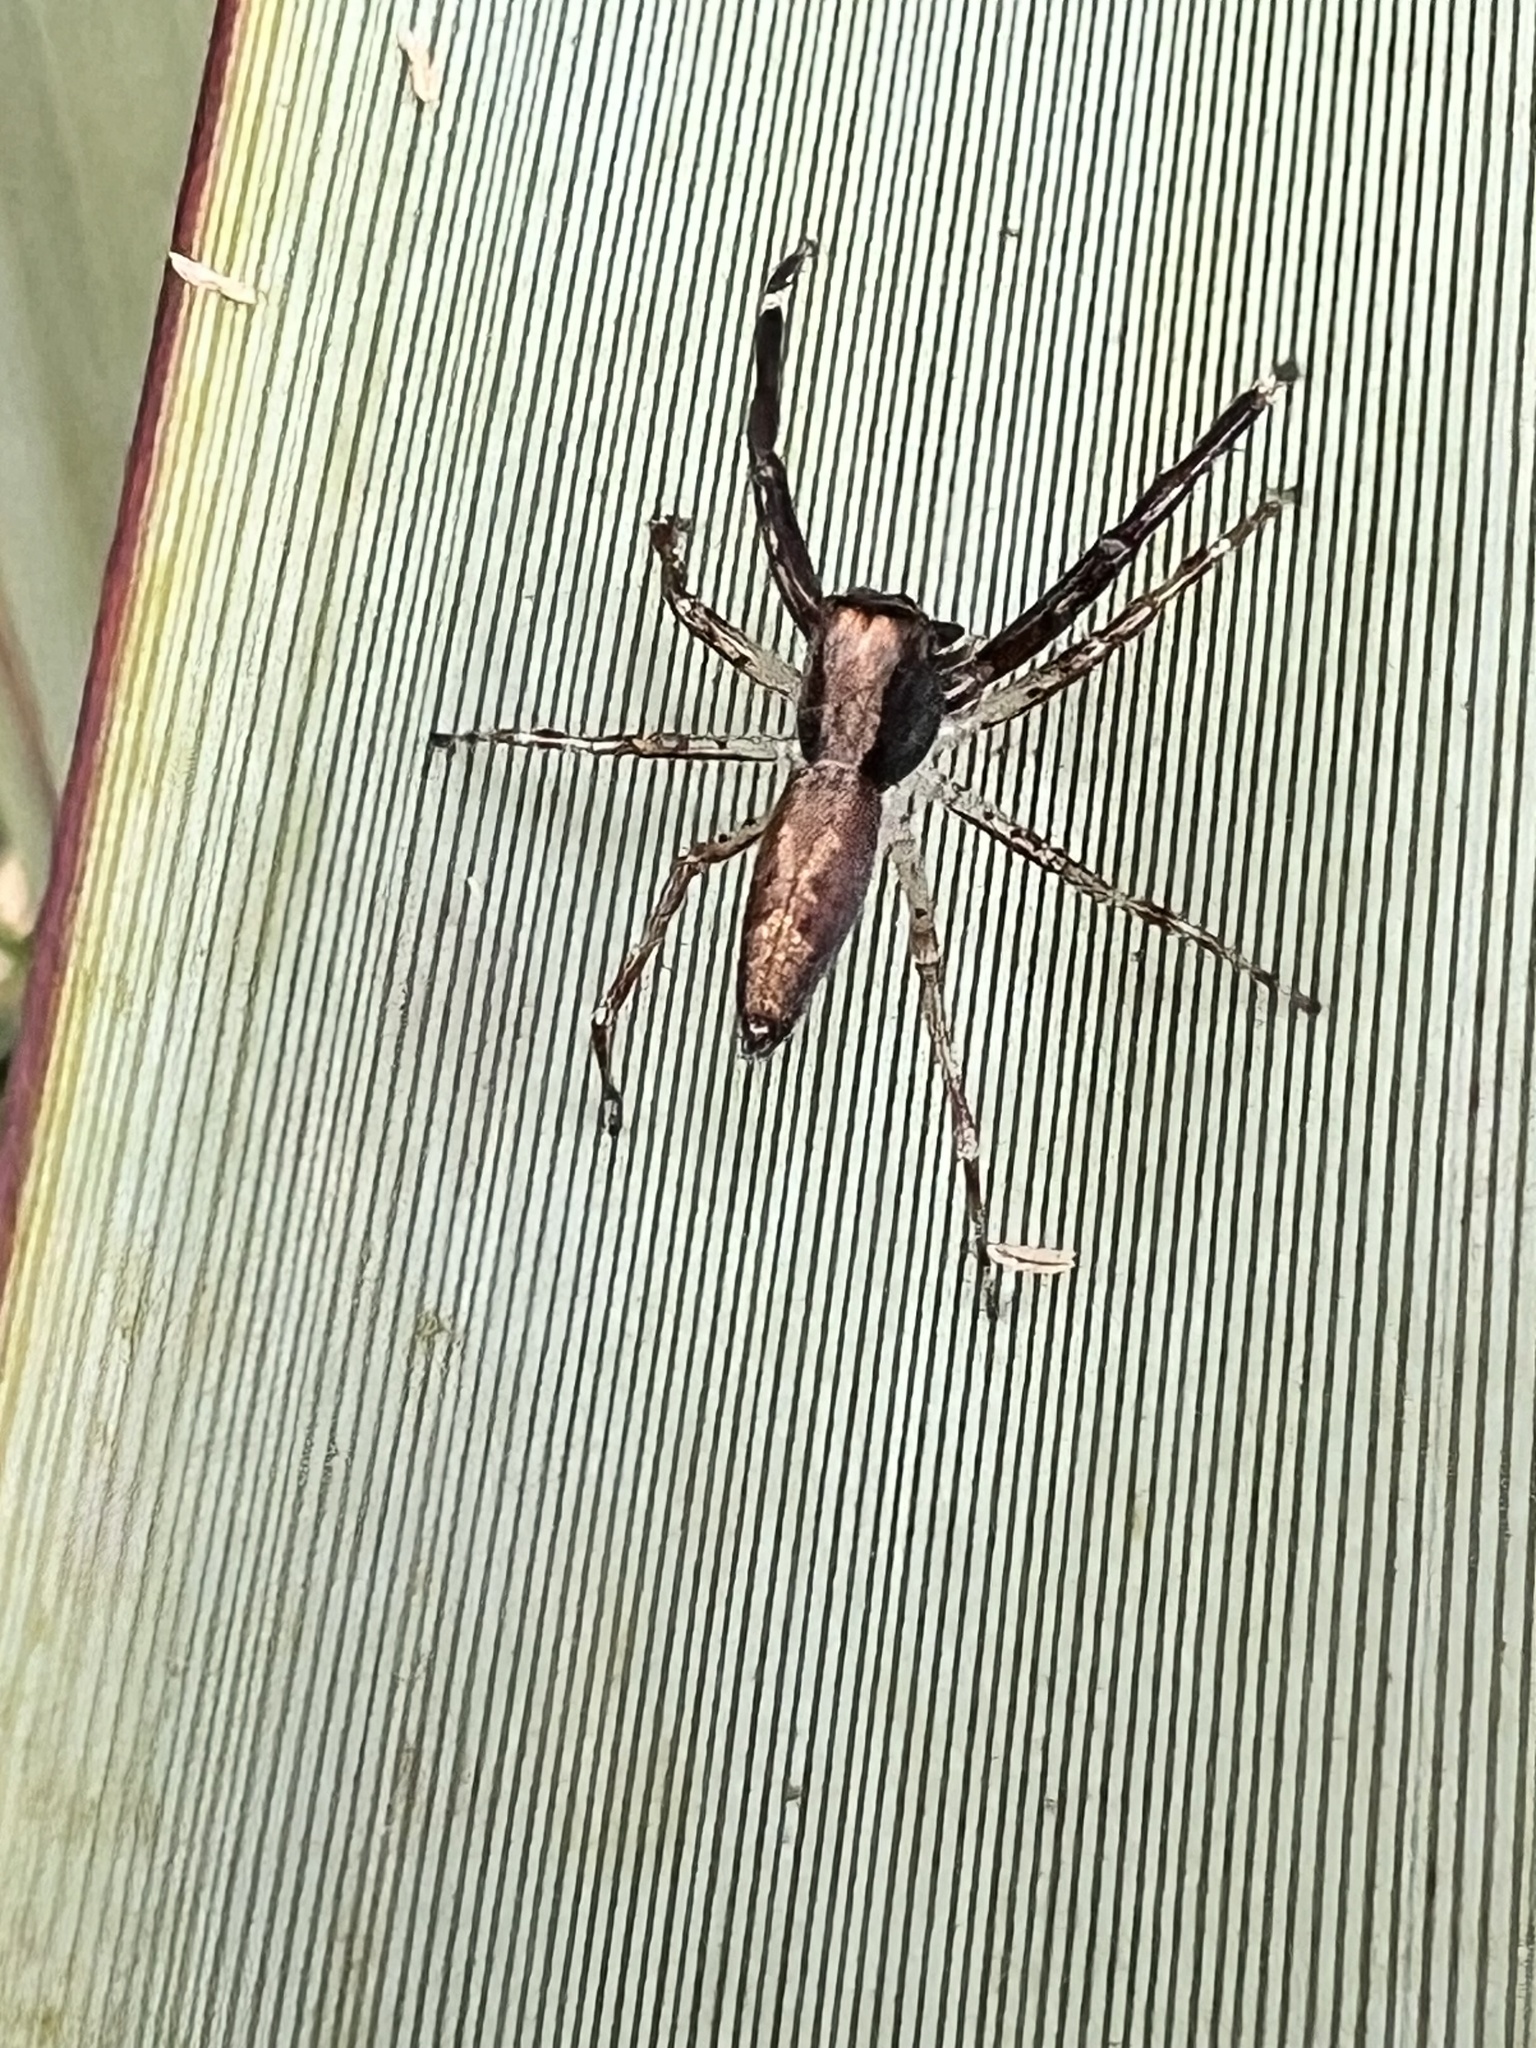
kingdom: Animalia
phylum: Arthropoda
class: Arachnida
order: Araneae
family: Salticidae
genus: Helpis
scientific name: Helpis minitabunda
